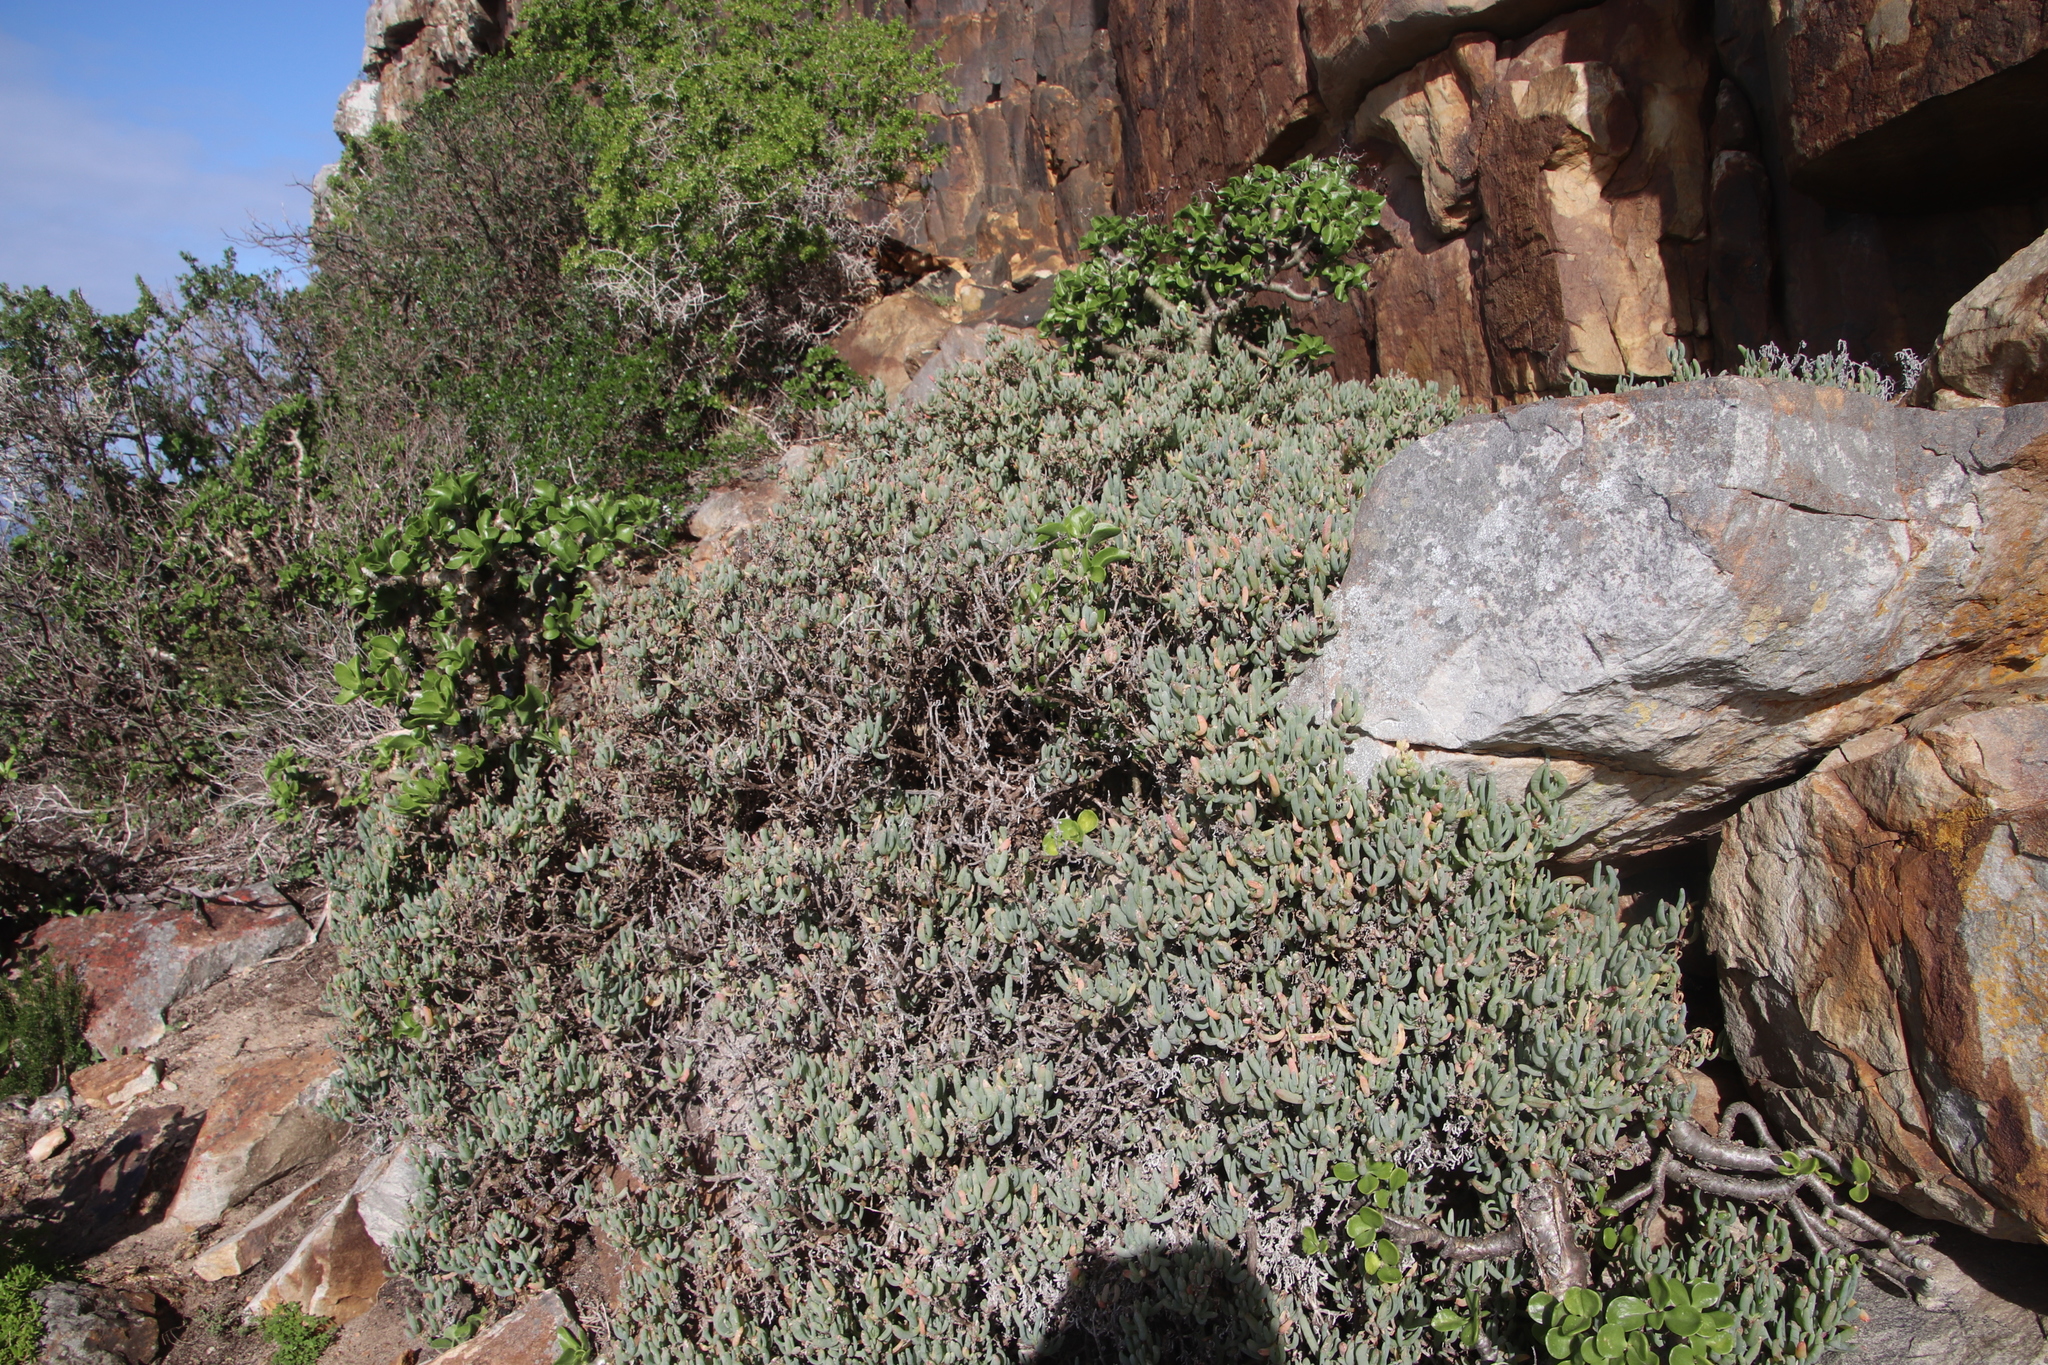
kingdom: Plantae
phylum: Tracheophyta
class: Magnoliopsida
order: Caryophyllales
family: Aizoaceae
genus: Scopelogena
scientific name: Scopelogena verruculata
